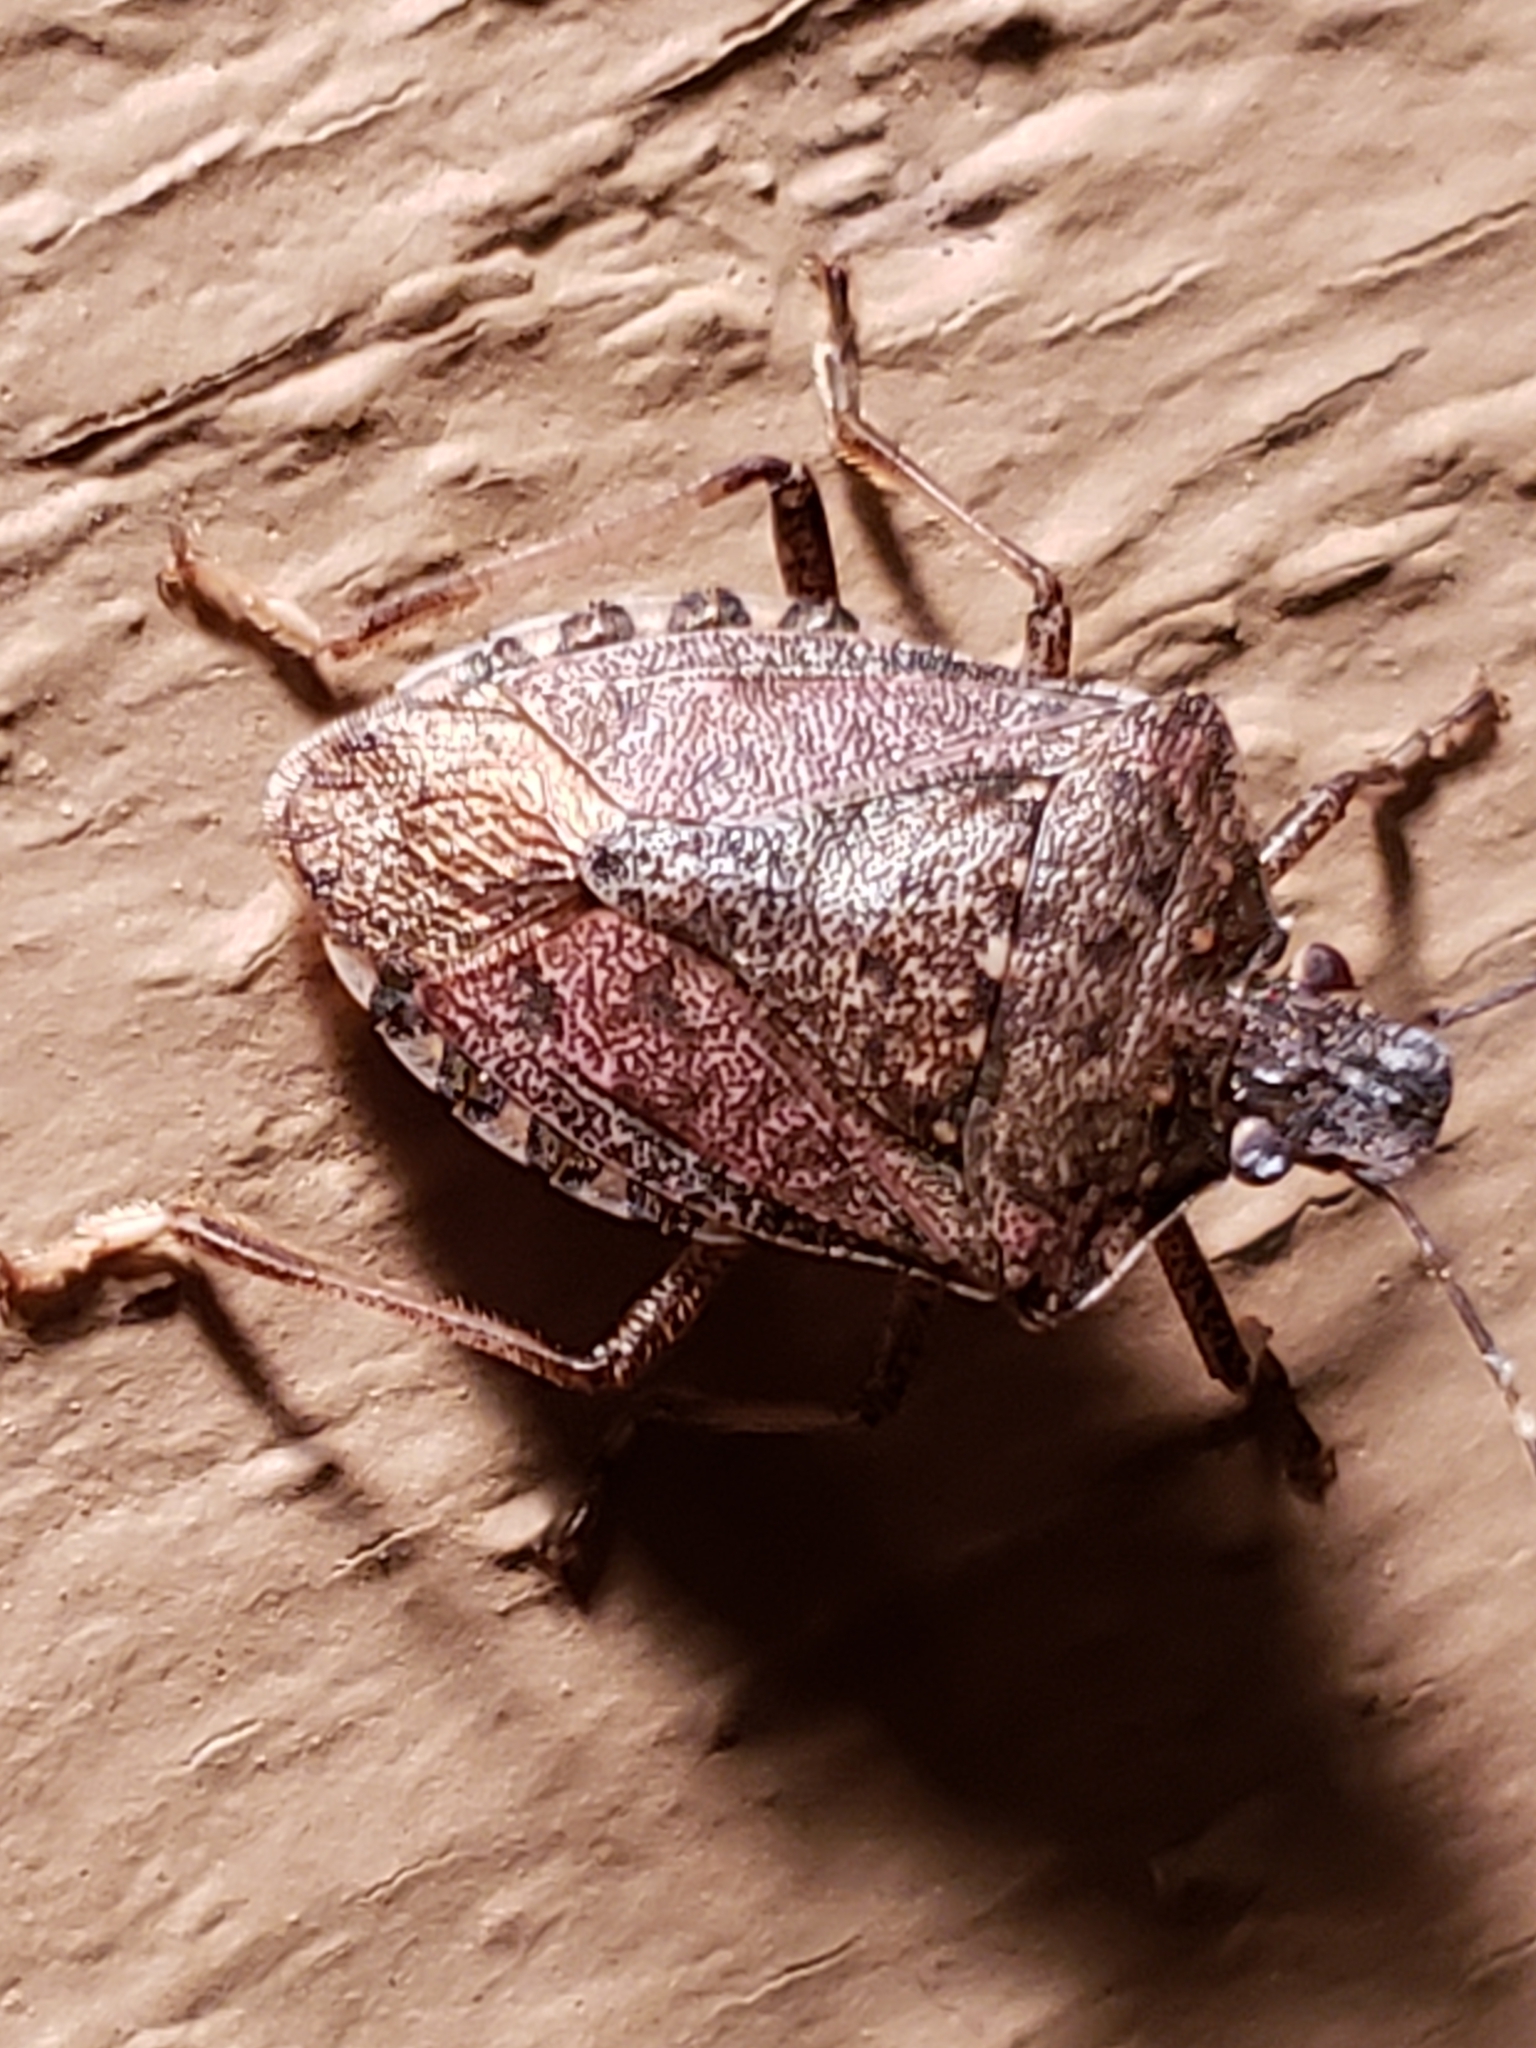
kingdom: Animalia
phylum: Arthropoda
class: Insecta
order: Hemiptera
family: Pentatomidae
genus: Halyomorpha
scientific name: Halyomorpha halys
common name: Brown marmorated stink bug
